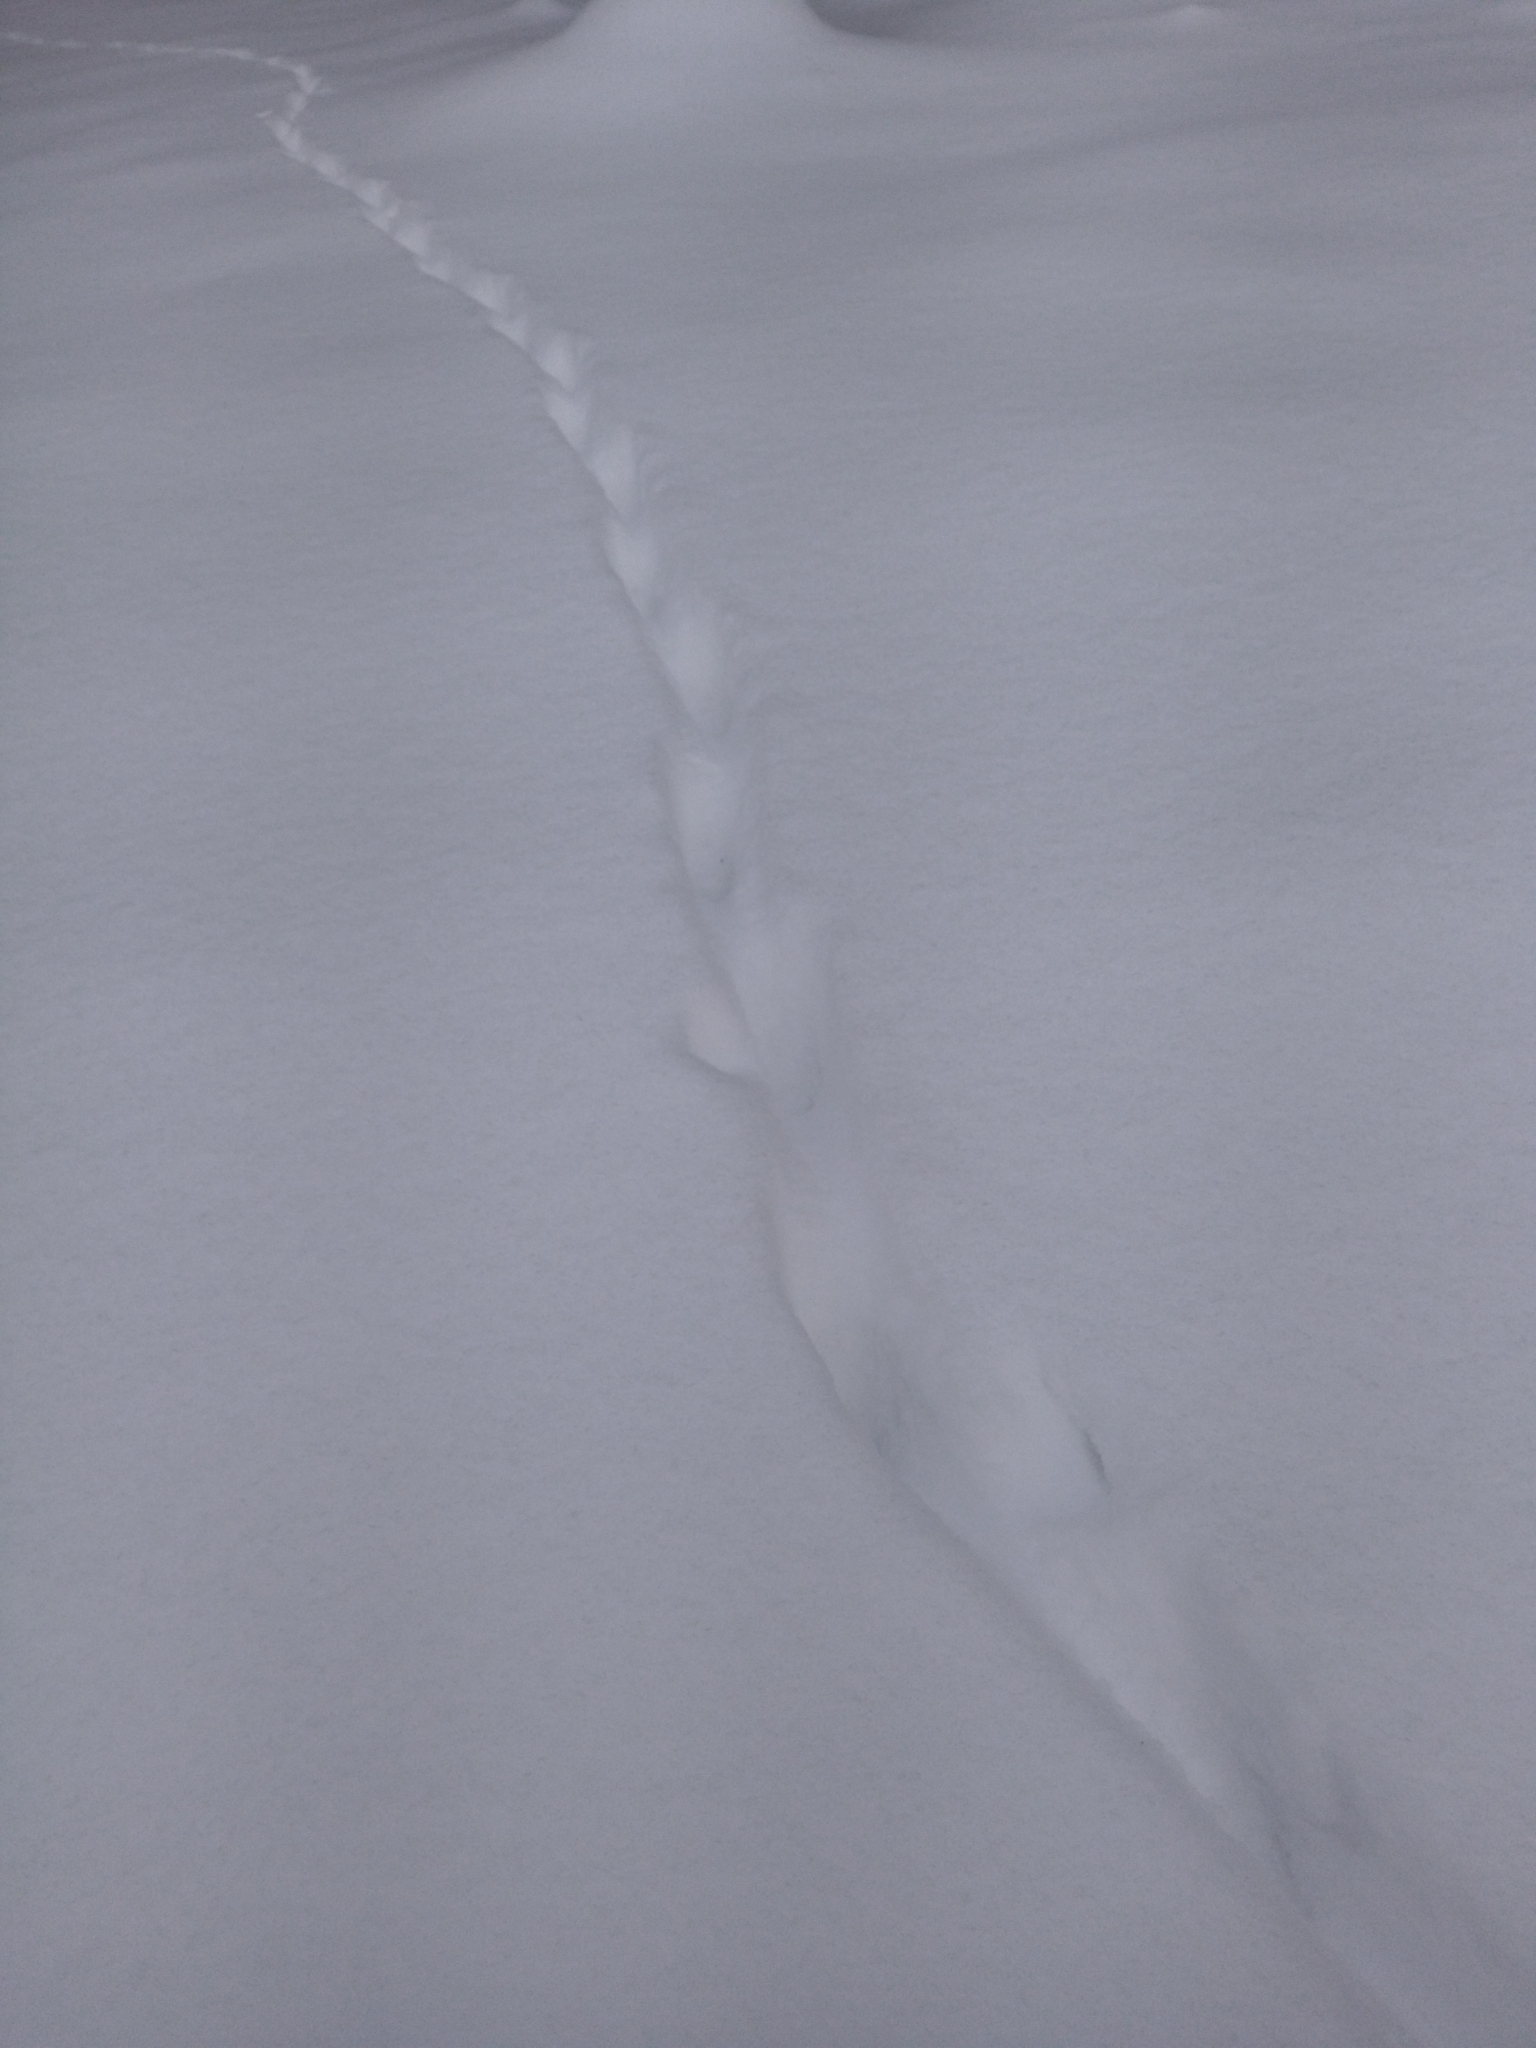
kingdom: Animalia
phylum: Chordata
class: Mammalia
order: Carnivora
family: Canidae
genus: Vulpes
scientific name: Vulpes vulpes
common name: Red fox
